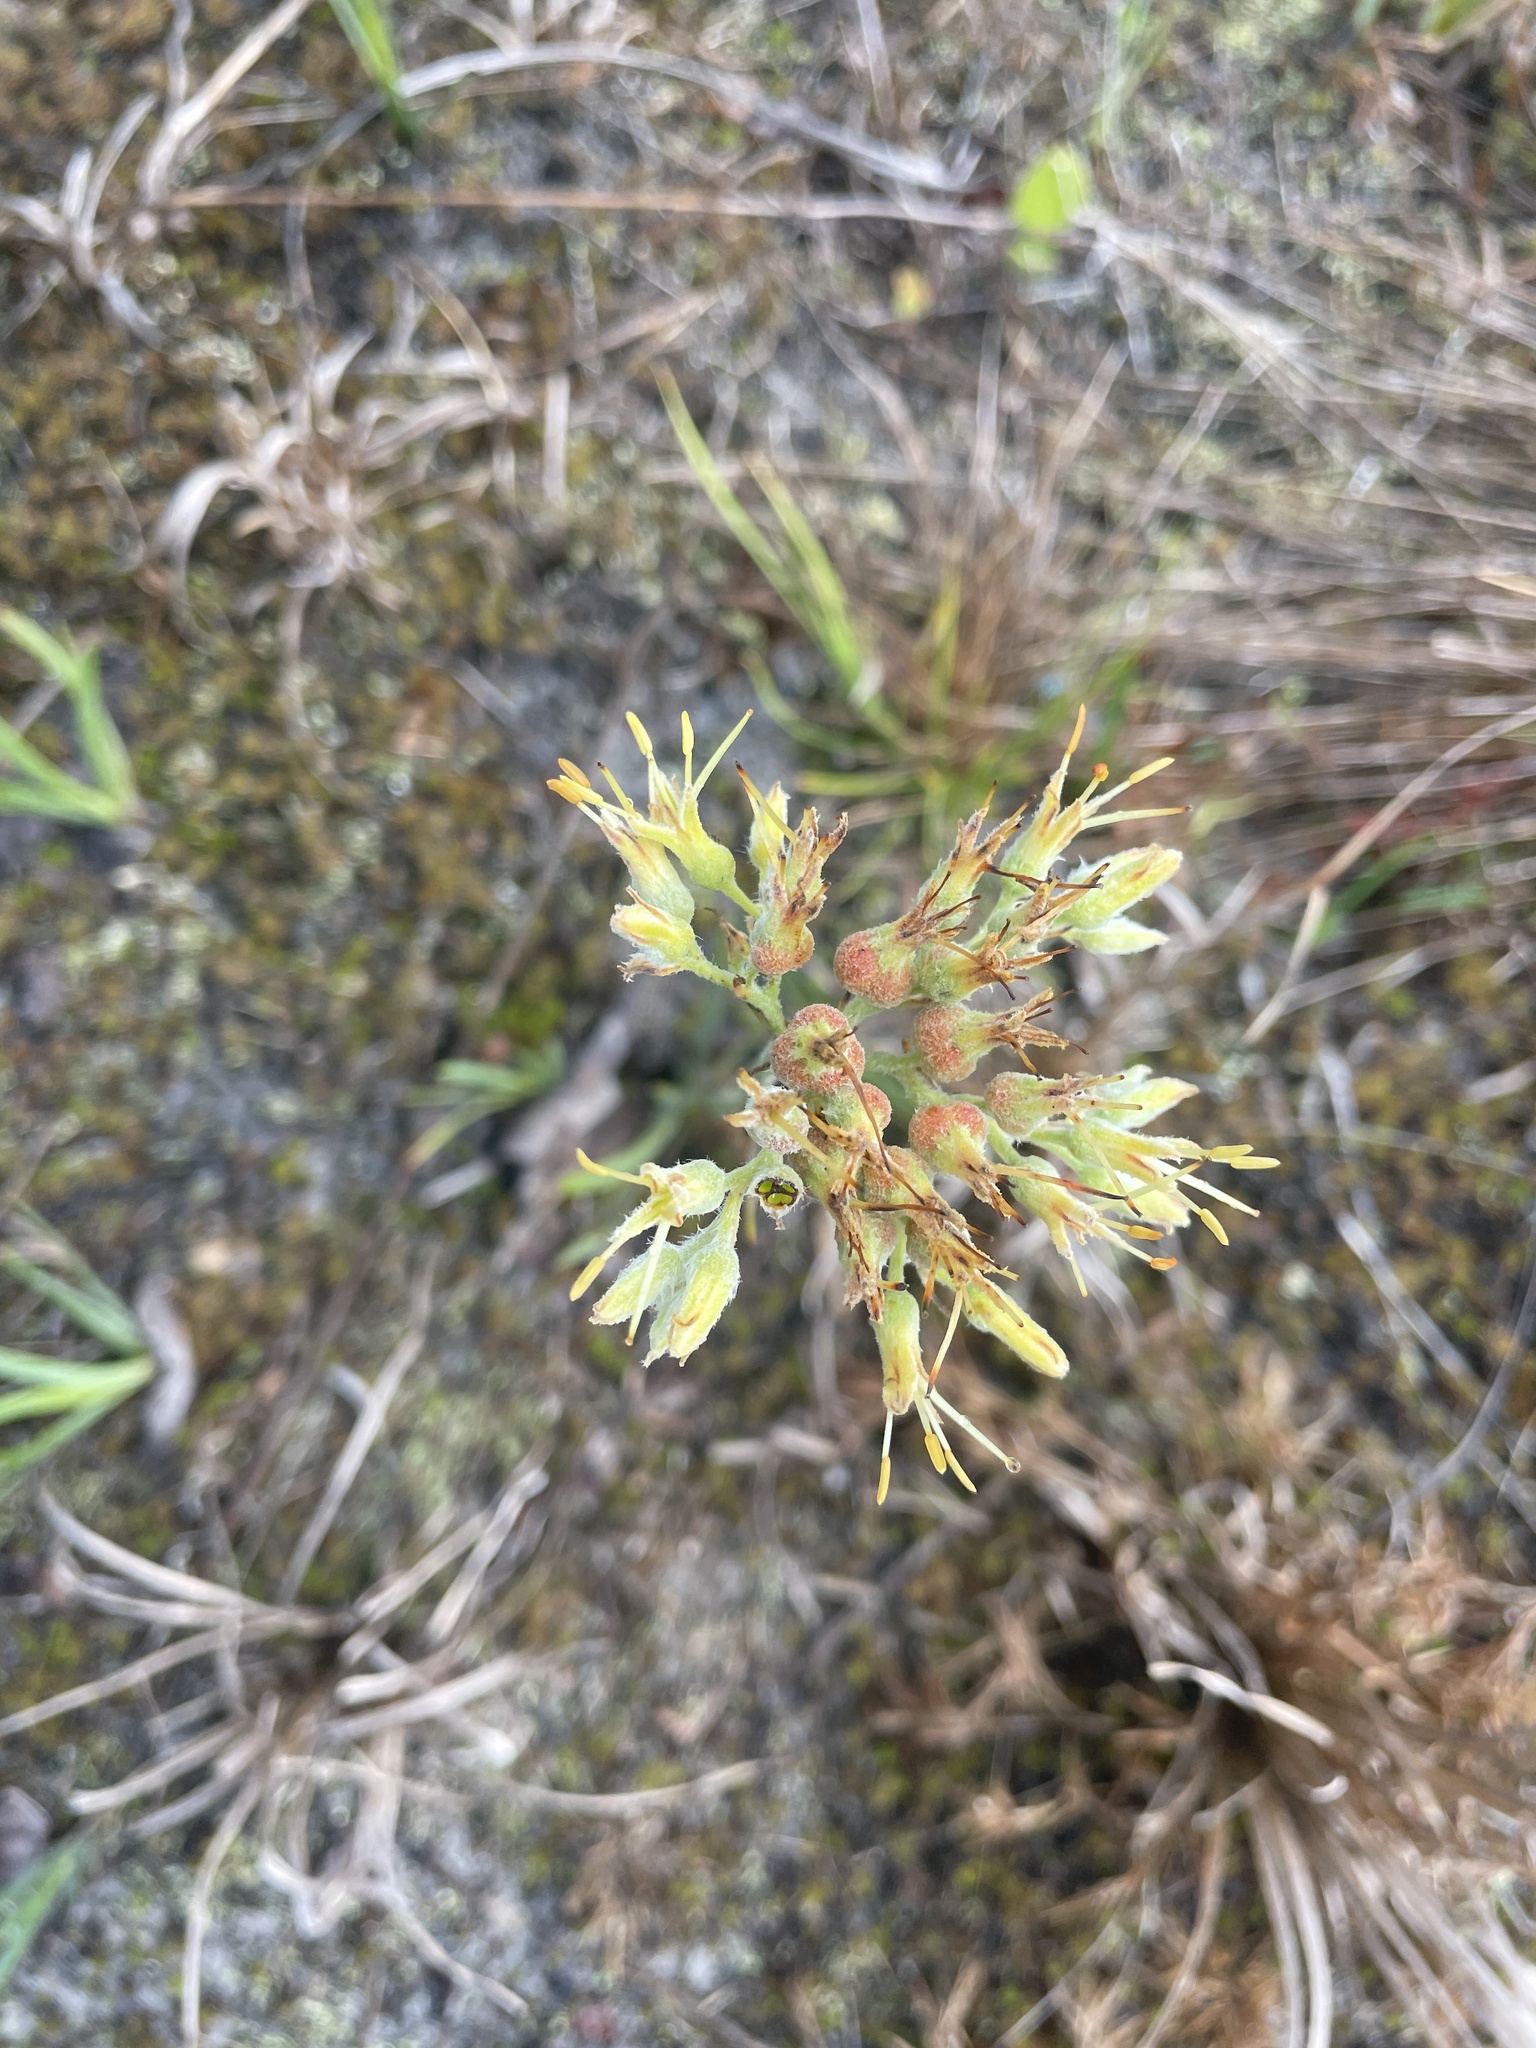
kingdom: Plantae
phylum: Tracheophyta
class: Liliopsida
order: Commelinales
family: Haemodoraceae
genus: Lachnanthes
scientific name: Lachnanthes caroliana
